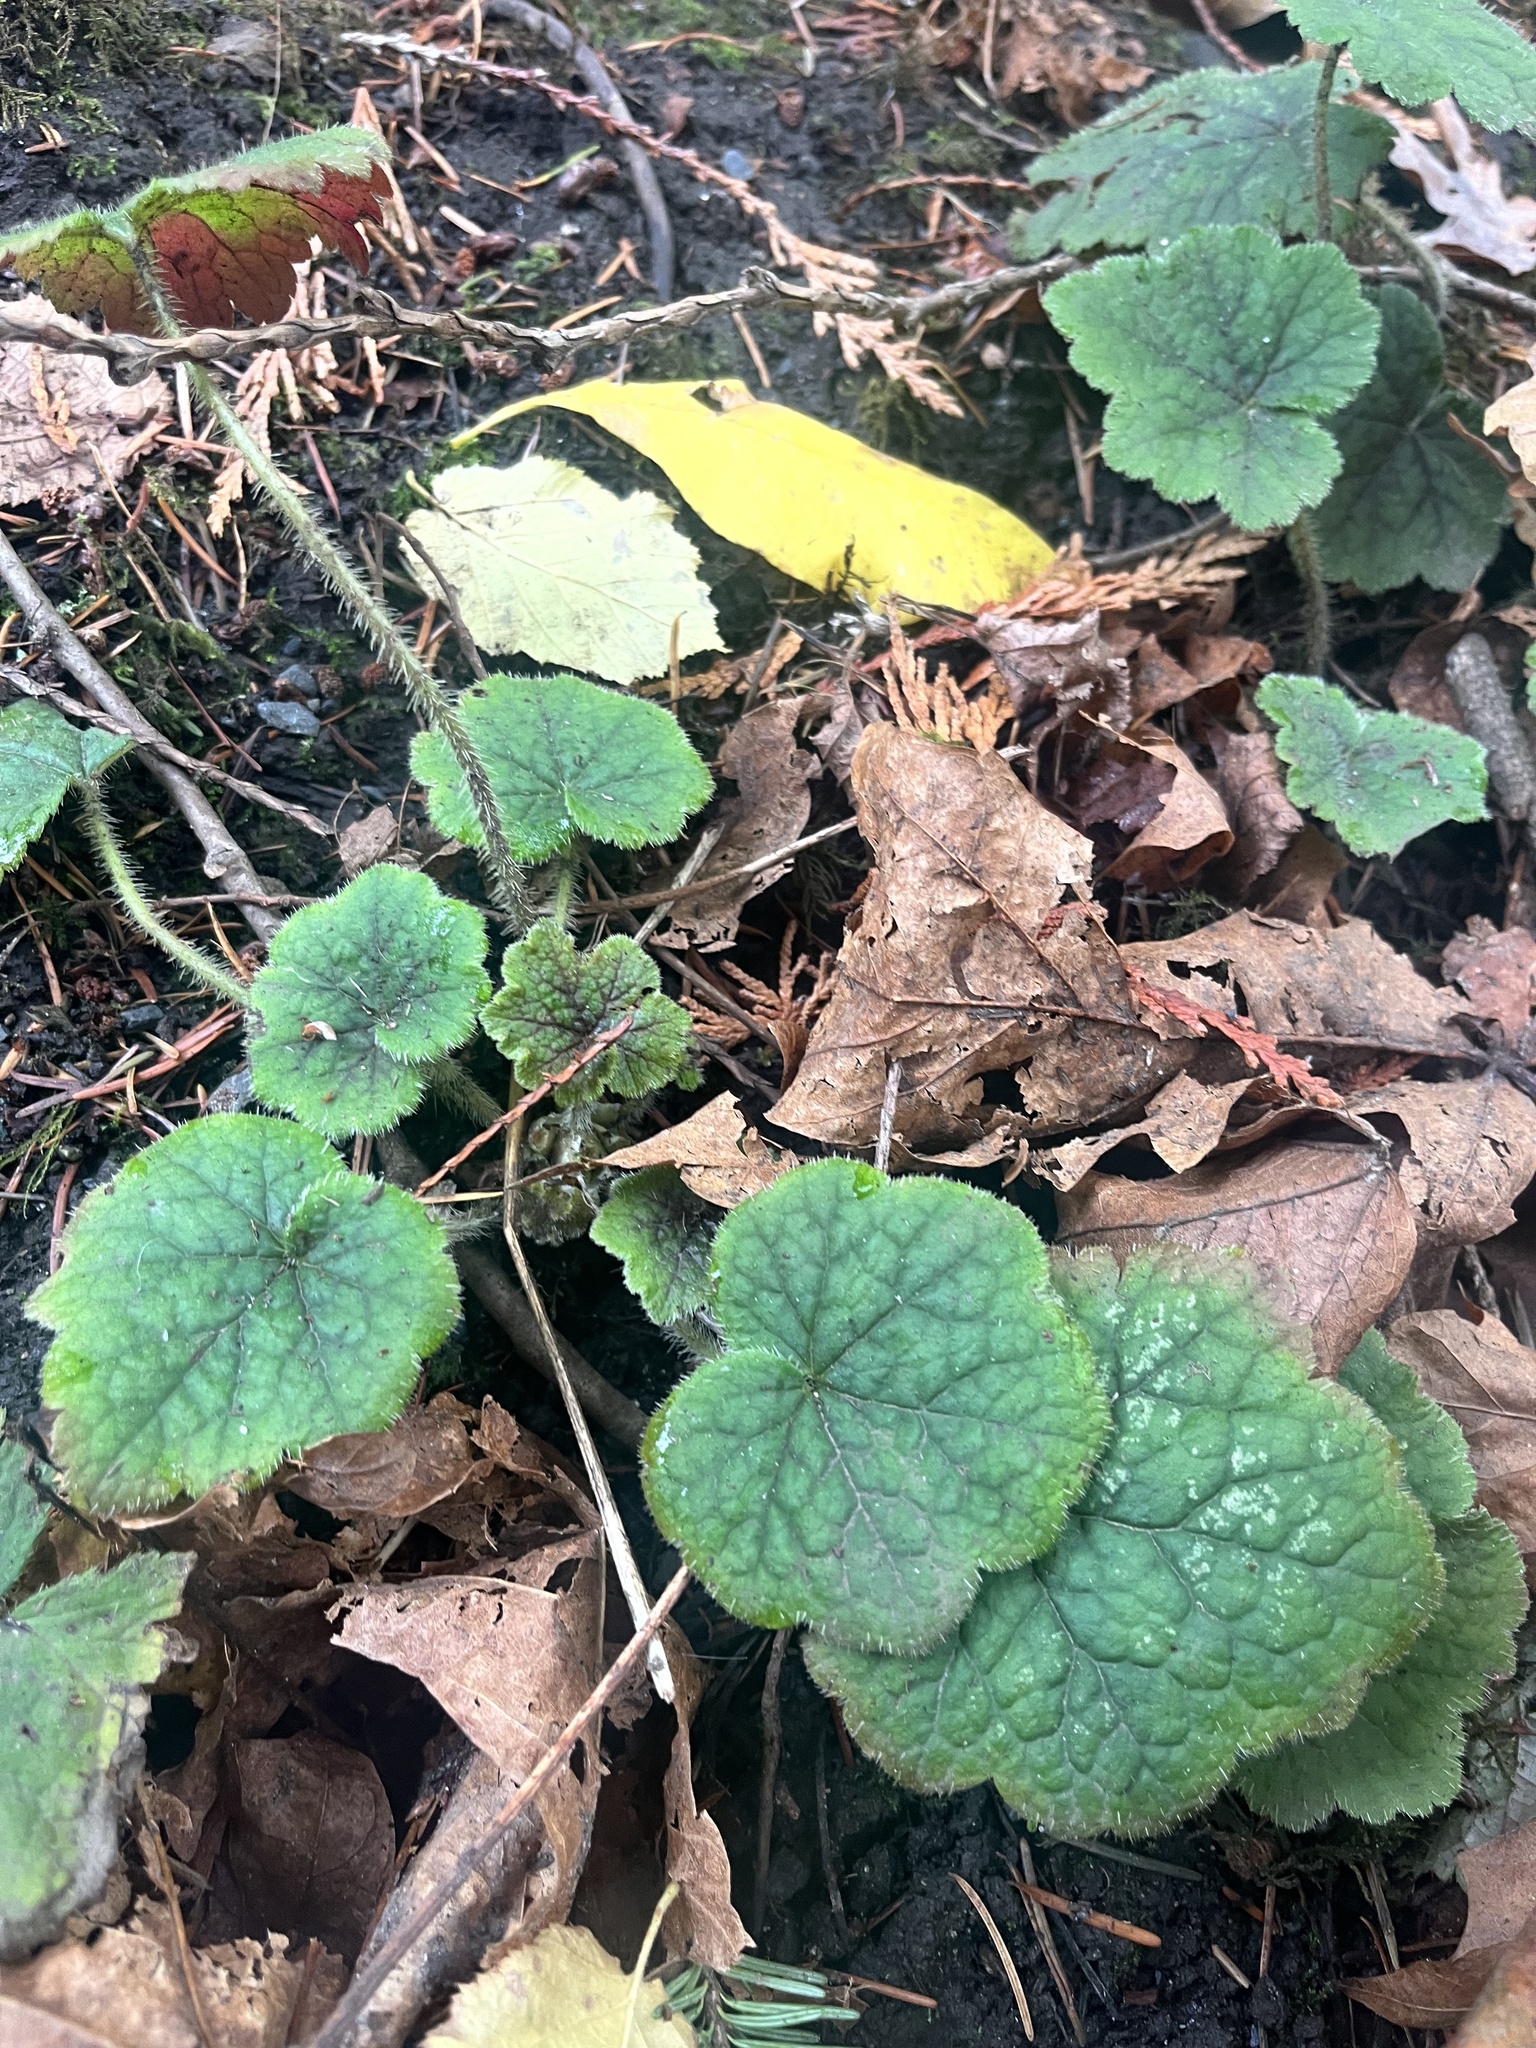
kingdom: Plantae
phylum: Tracheophyta
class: Magnoliopsida
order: Saxifragales
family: Saxifragaceae
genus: Tellima
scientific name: Tellima grandiflora
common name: Fringecups
